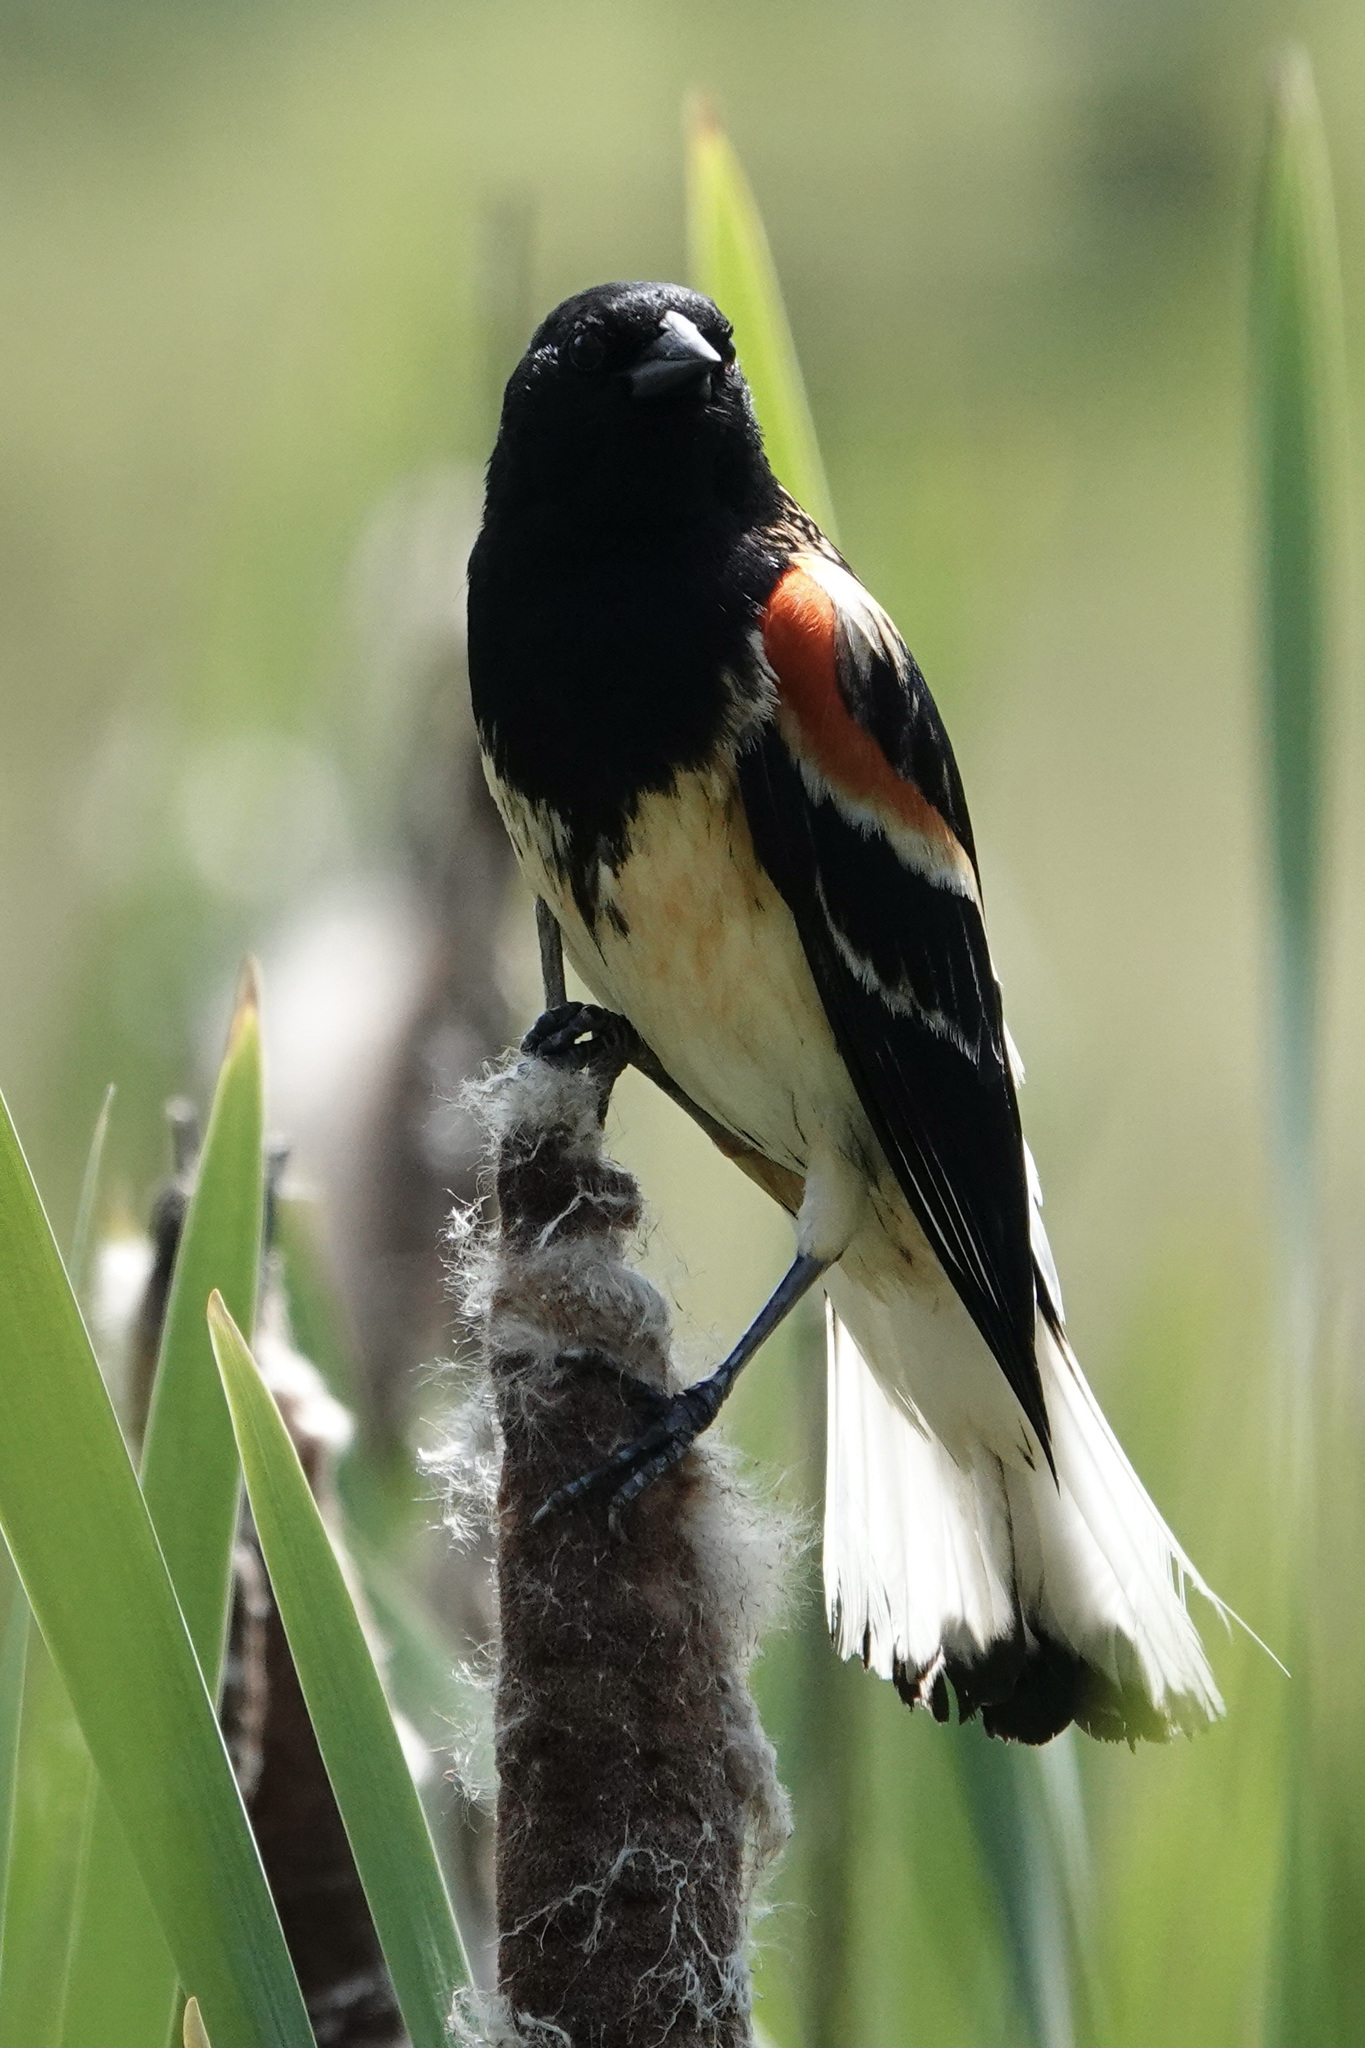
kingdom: Animalia
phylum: Chordata
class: Aves
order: Passeriformes
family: Icteridae
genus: Agelaius
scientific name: Agelaius phoeniceus
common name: Red-winged blackbird
